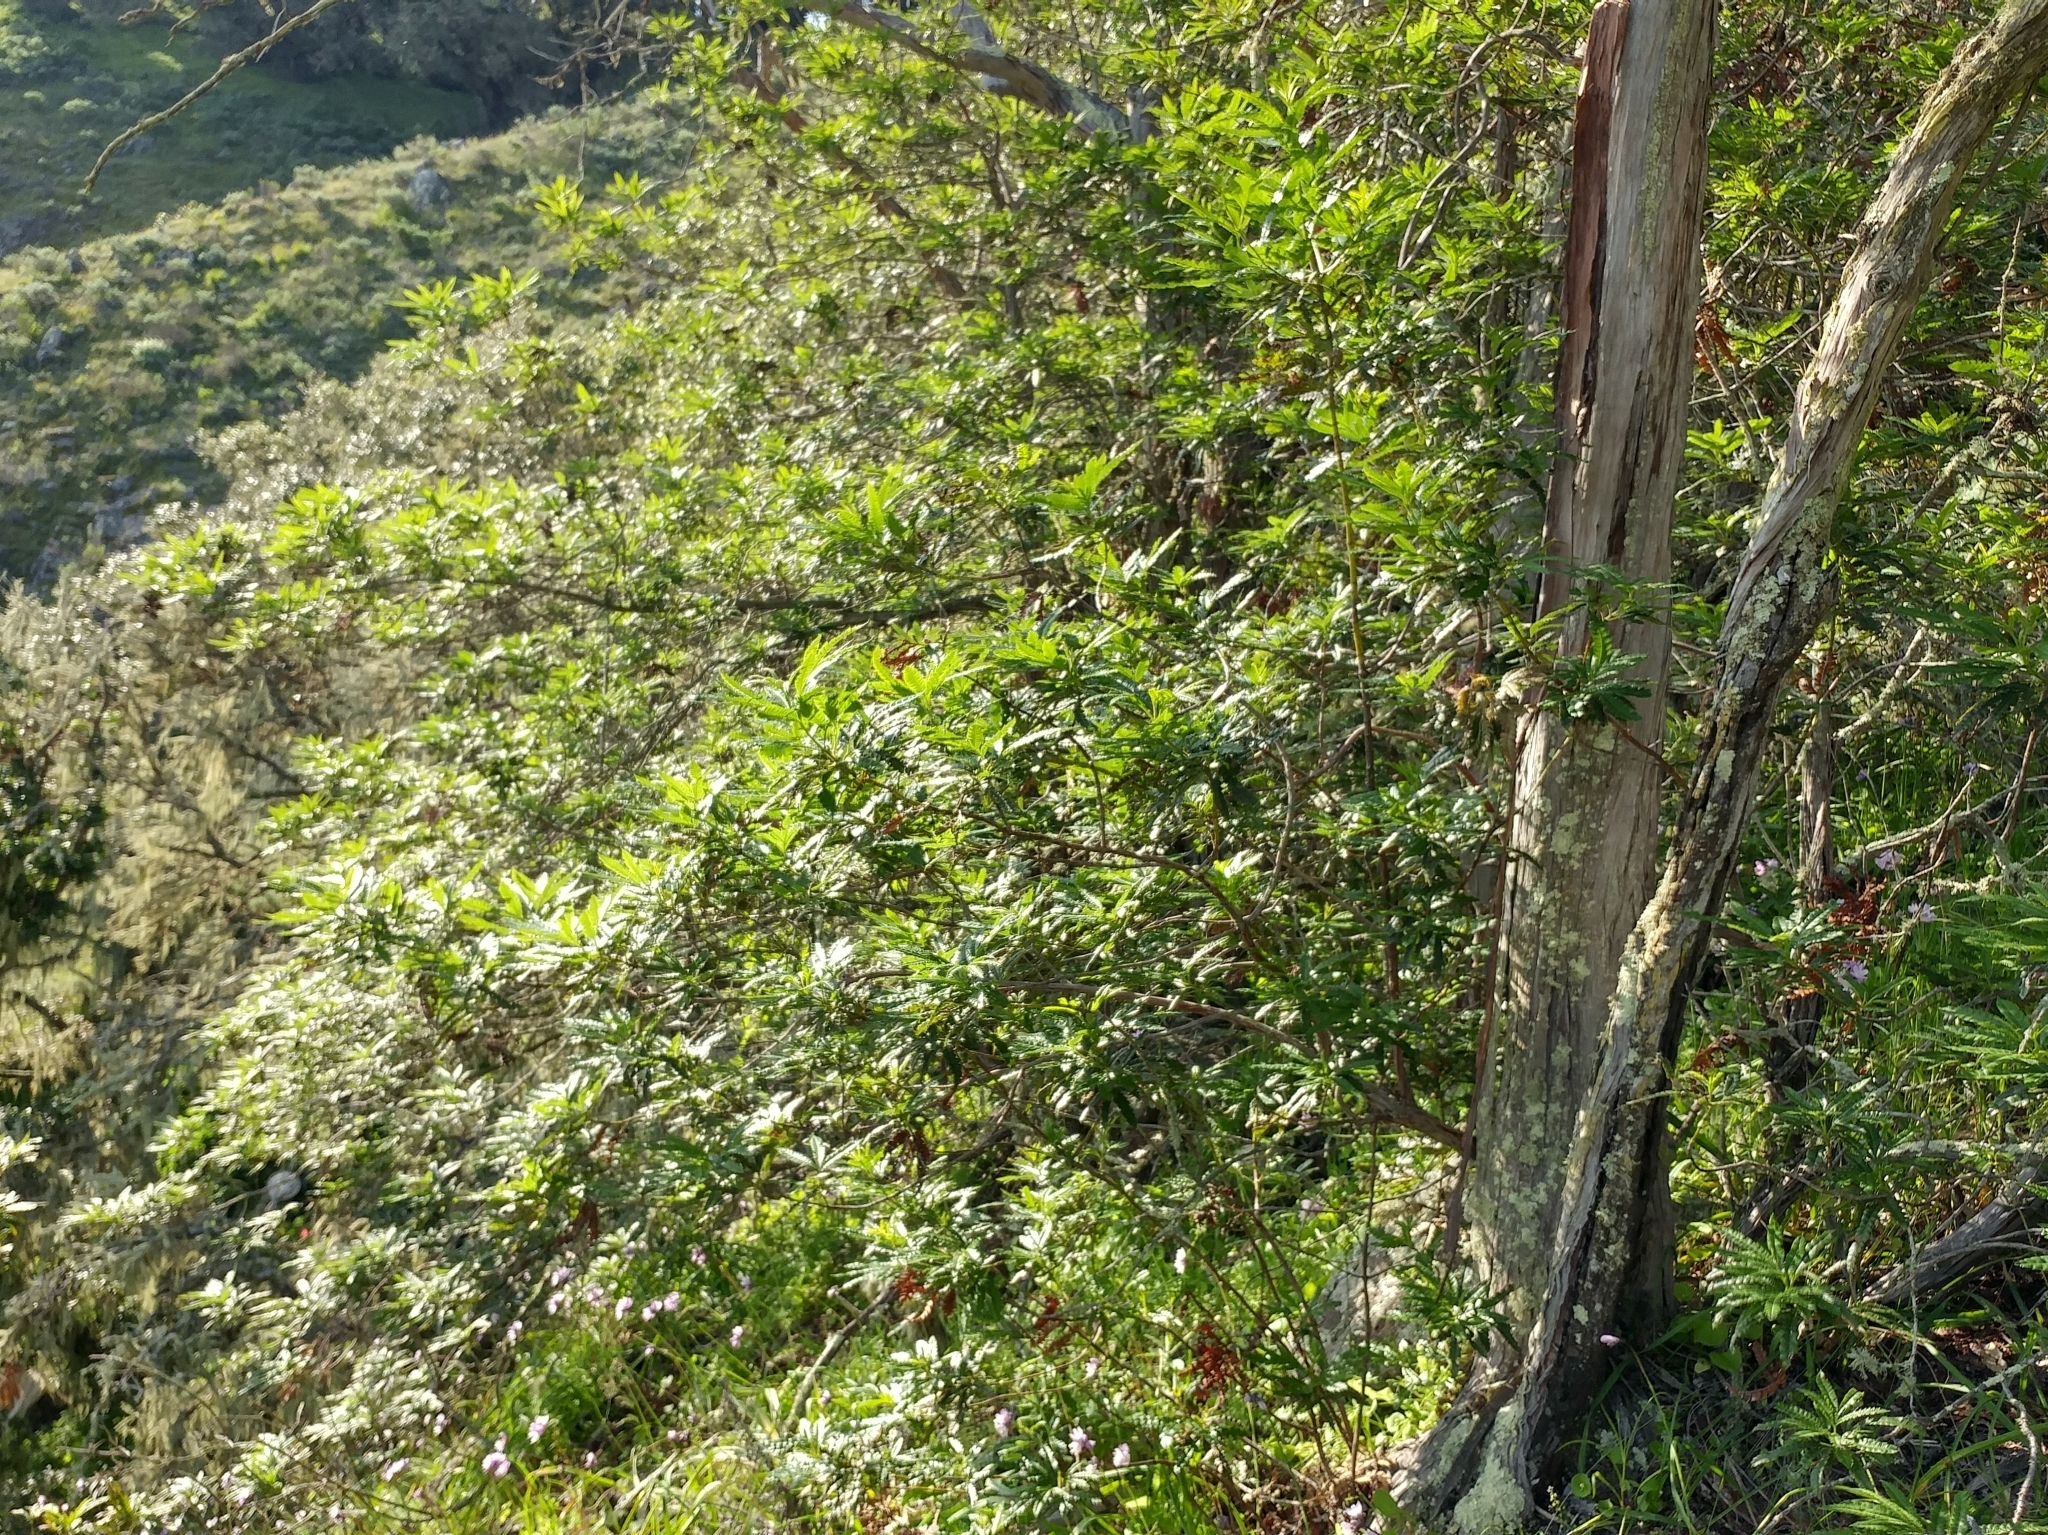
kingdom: Plantae
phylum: Tracheophyta
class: Magnoliopsida
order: Rosales
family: Rosaceae
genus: Lyonothamnus
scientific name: Lyonothamnus floribundus
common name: Catalina ironwood
